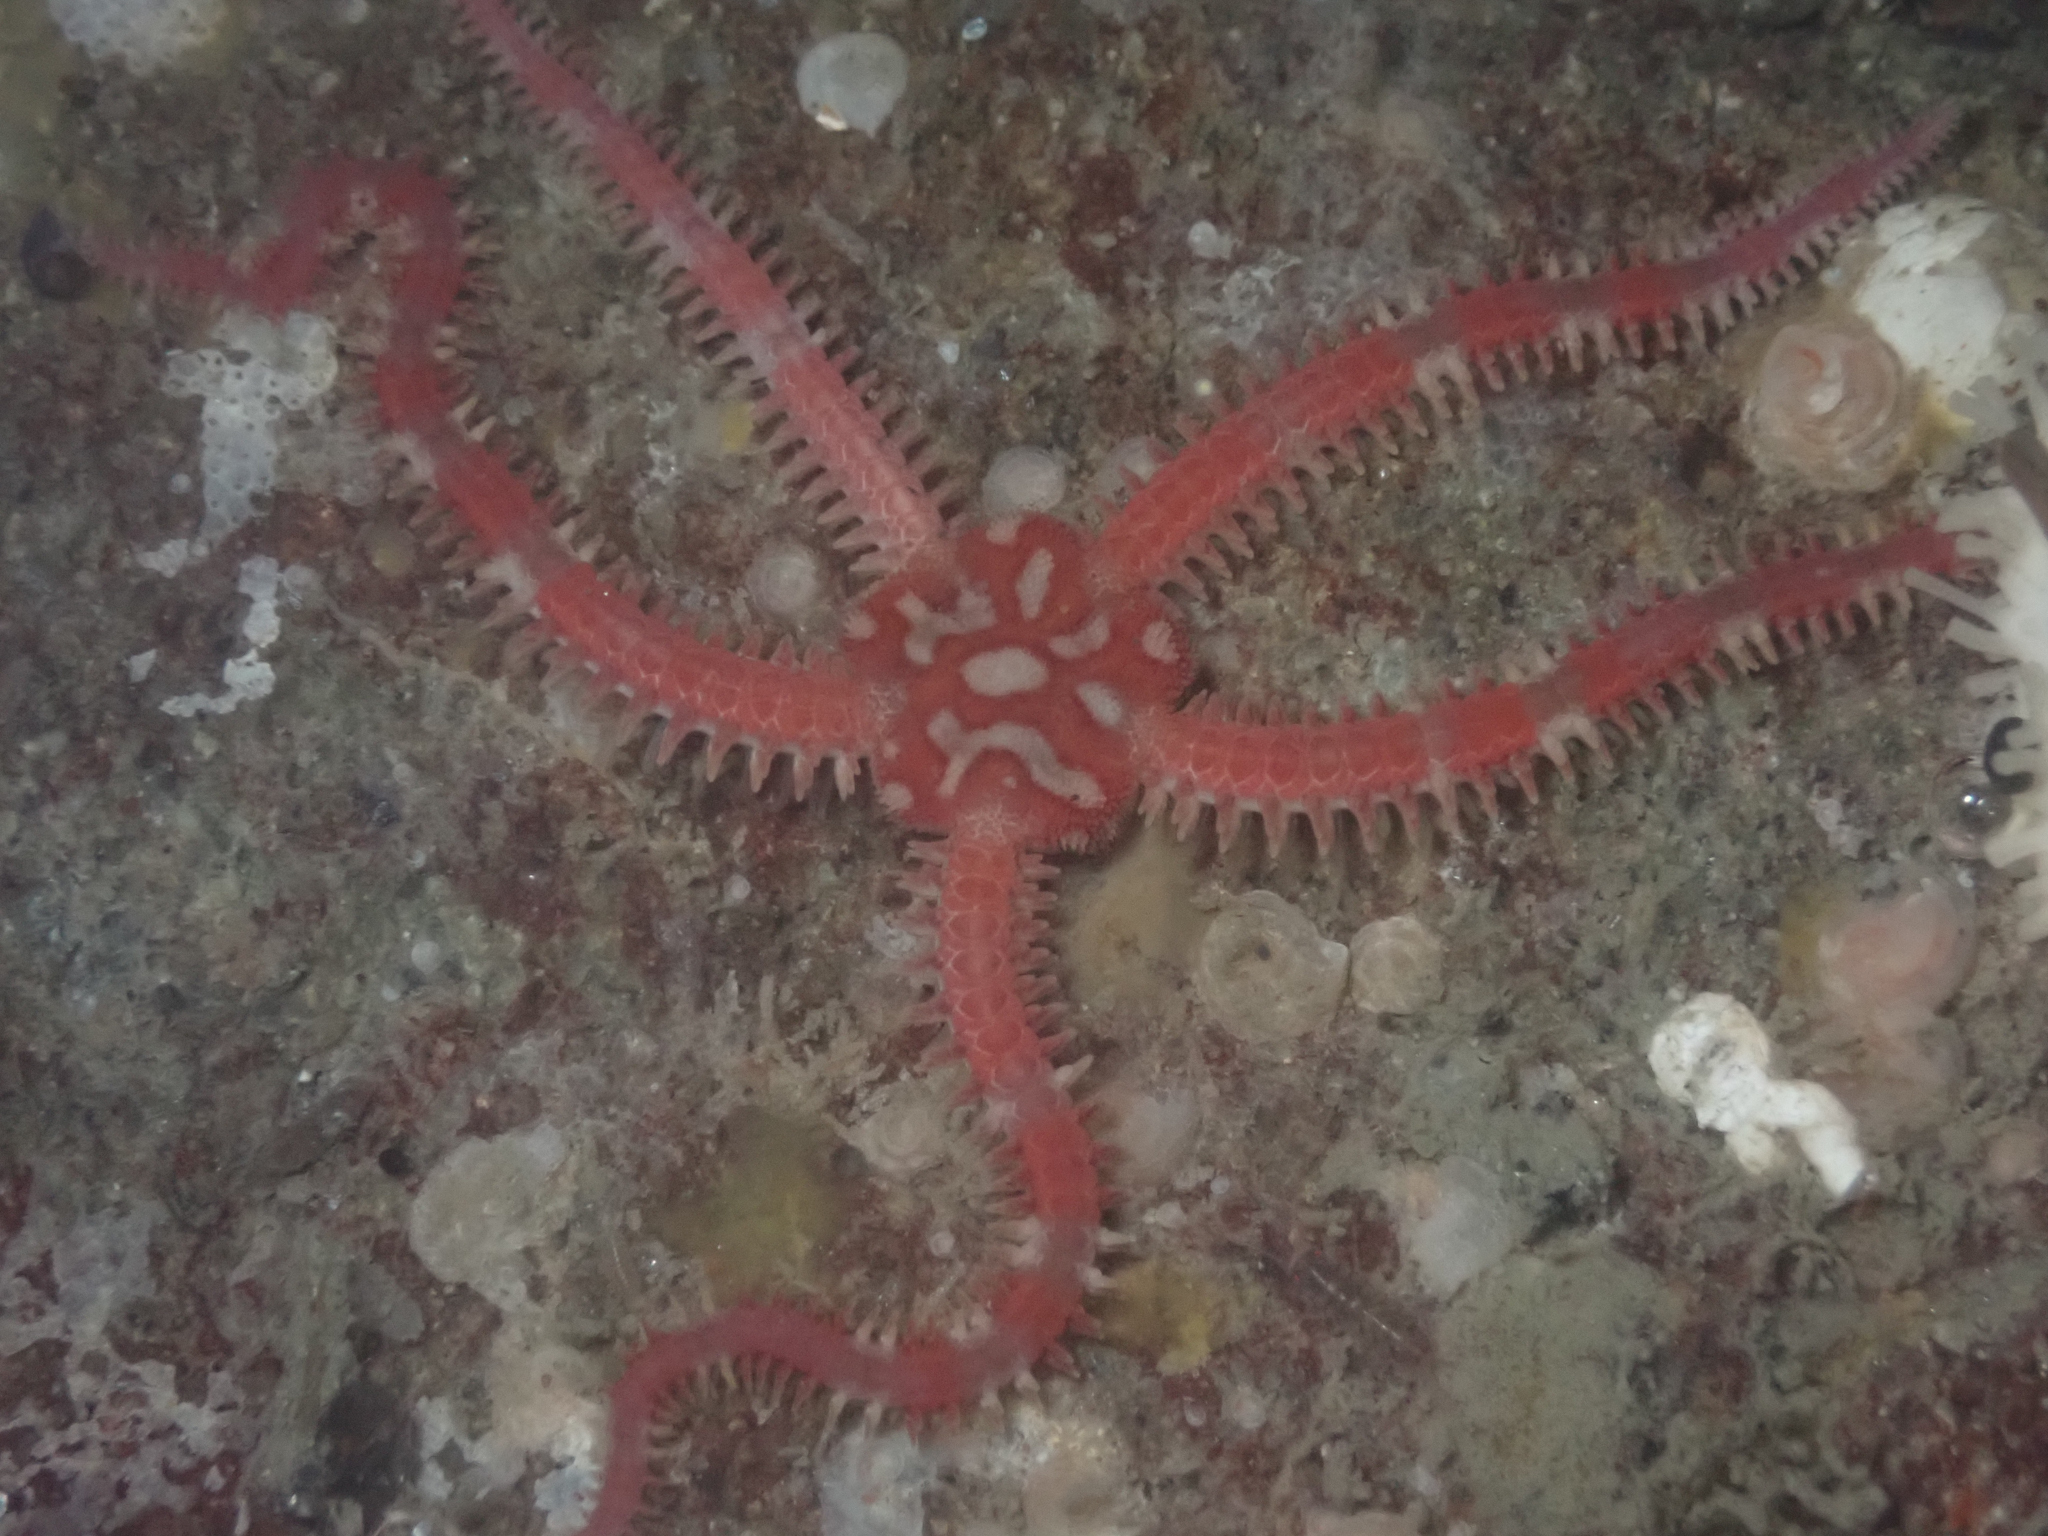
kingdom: Animalia
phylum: Echinodermata
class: Ophiuroidea
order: Amphilepidida
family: Ophiopholidae
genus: Ophiopholis
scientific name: Ophiopholis aculeata
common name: Crevice brittlestar
